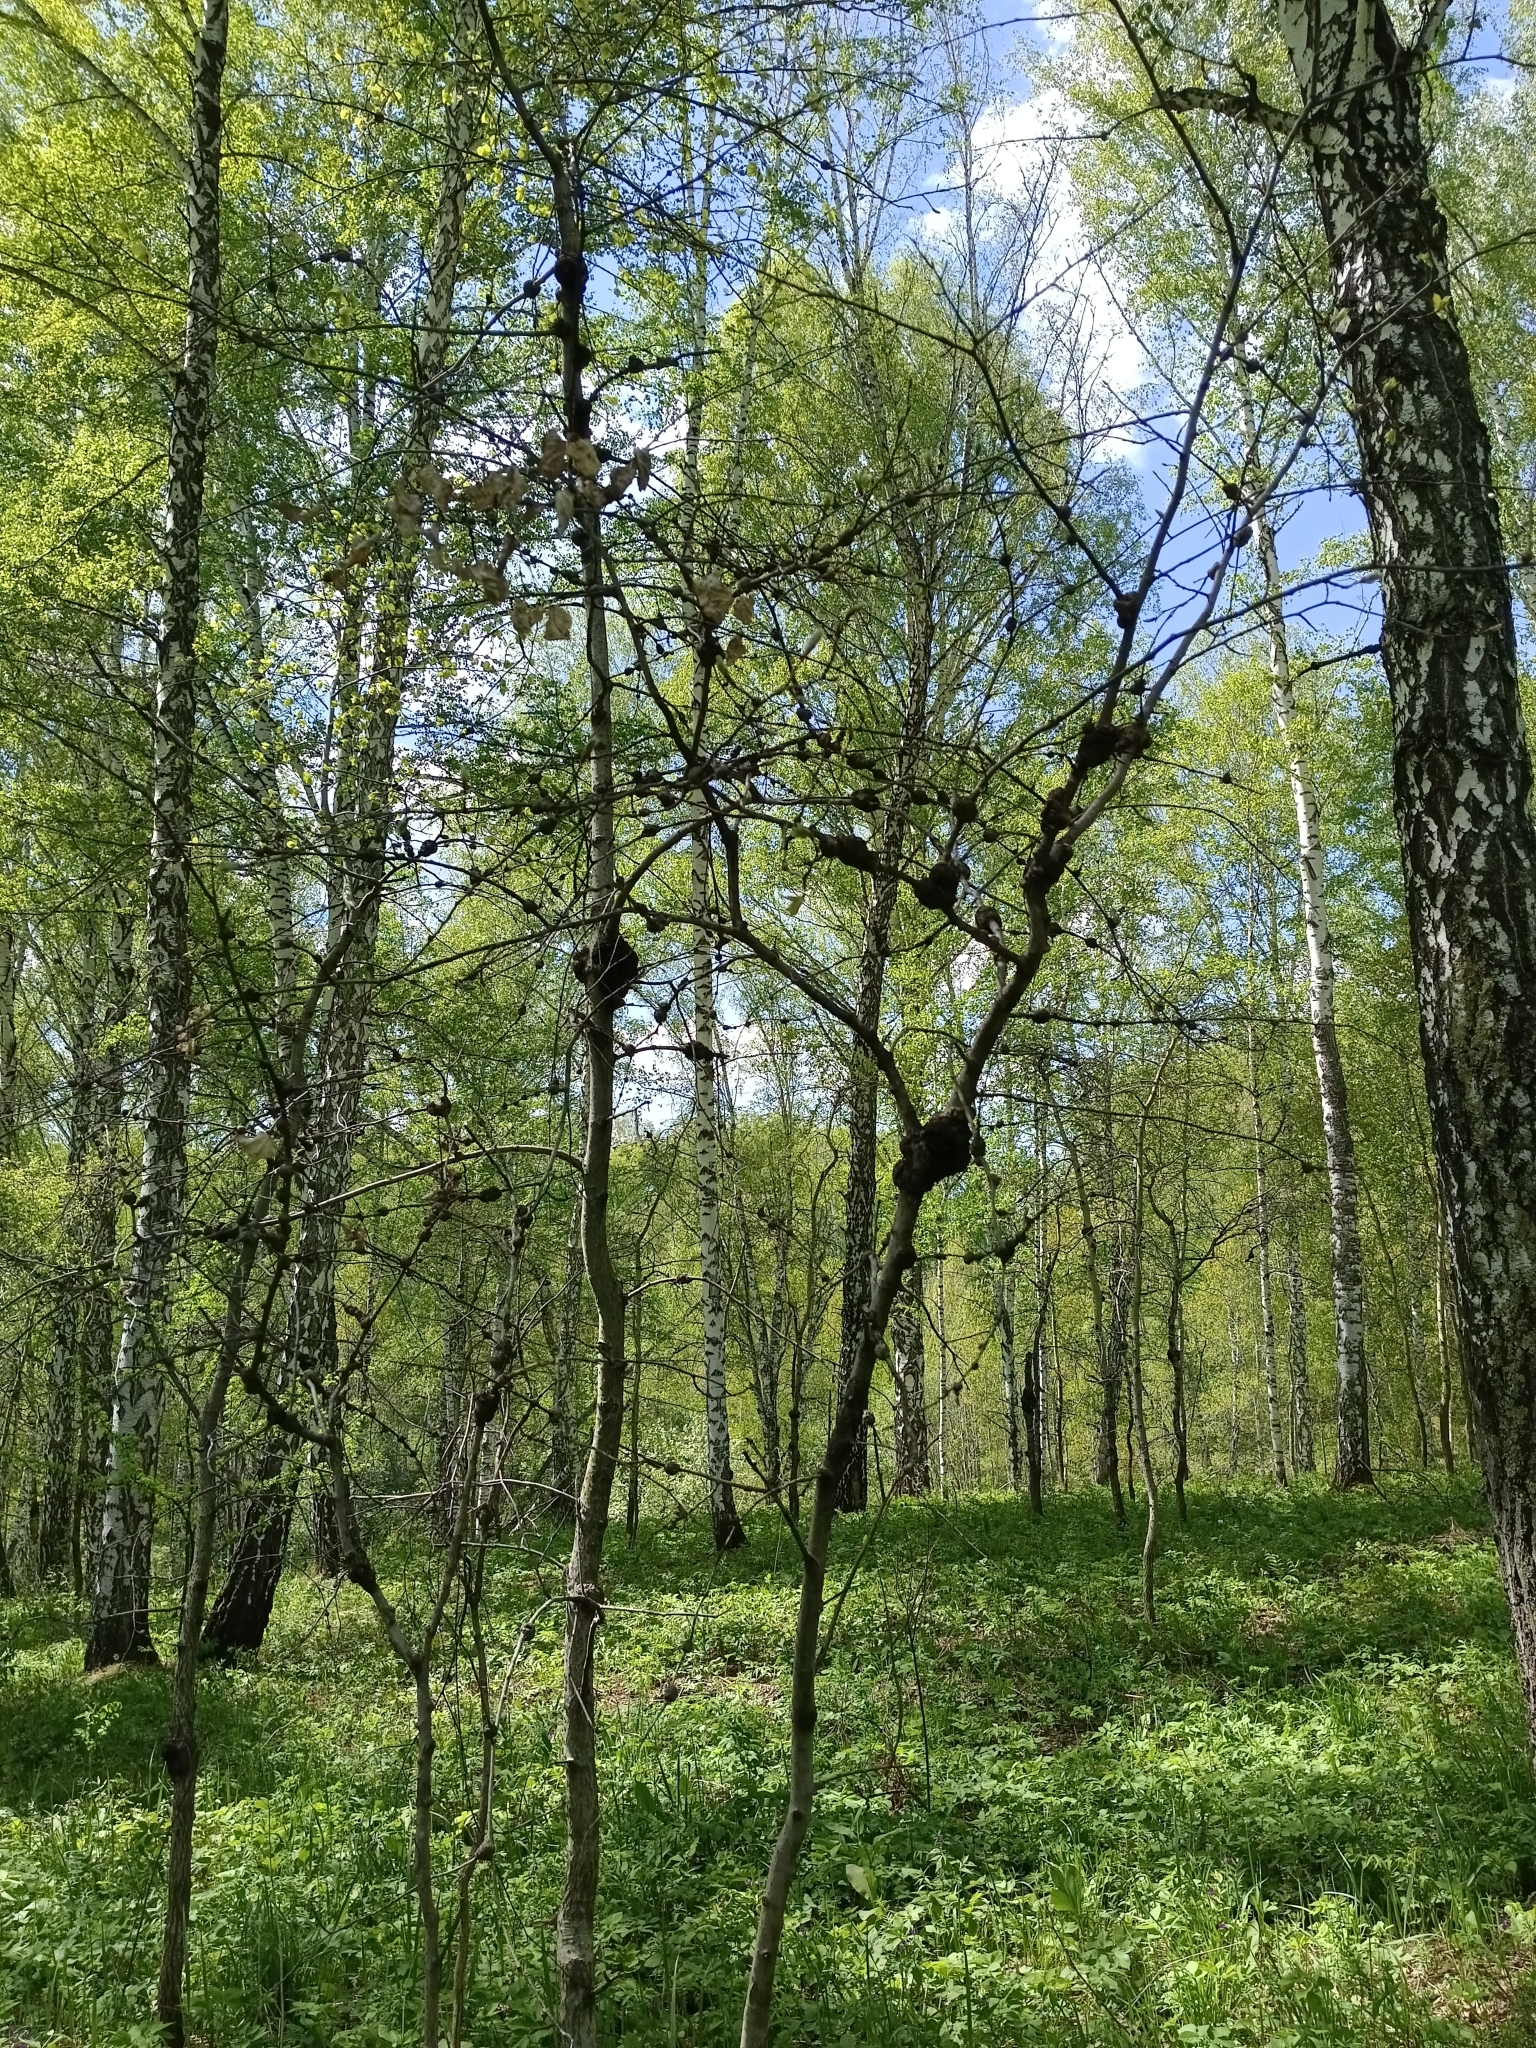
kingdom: Bacteria
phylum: Proteobacteria
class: Alphaproteobacteria
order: Rhizobiales
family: Rhizobiaceae
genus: Rhizobium
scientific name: Rhizobium Agrobacterium radiobacter
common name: Bacterial crown gall
